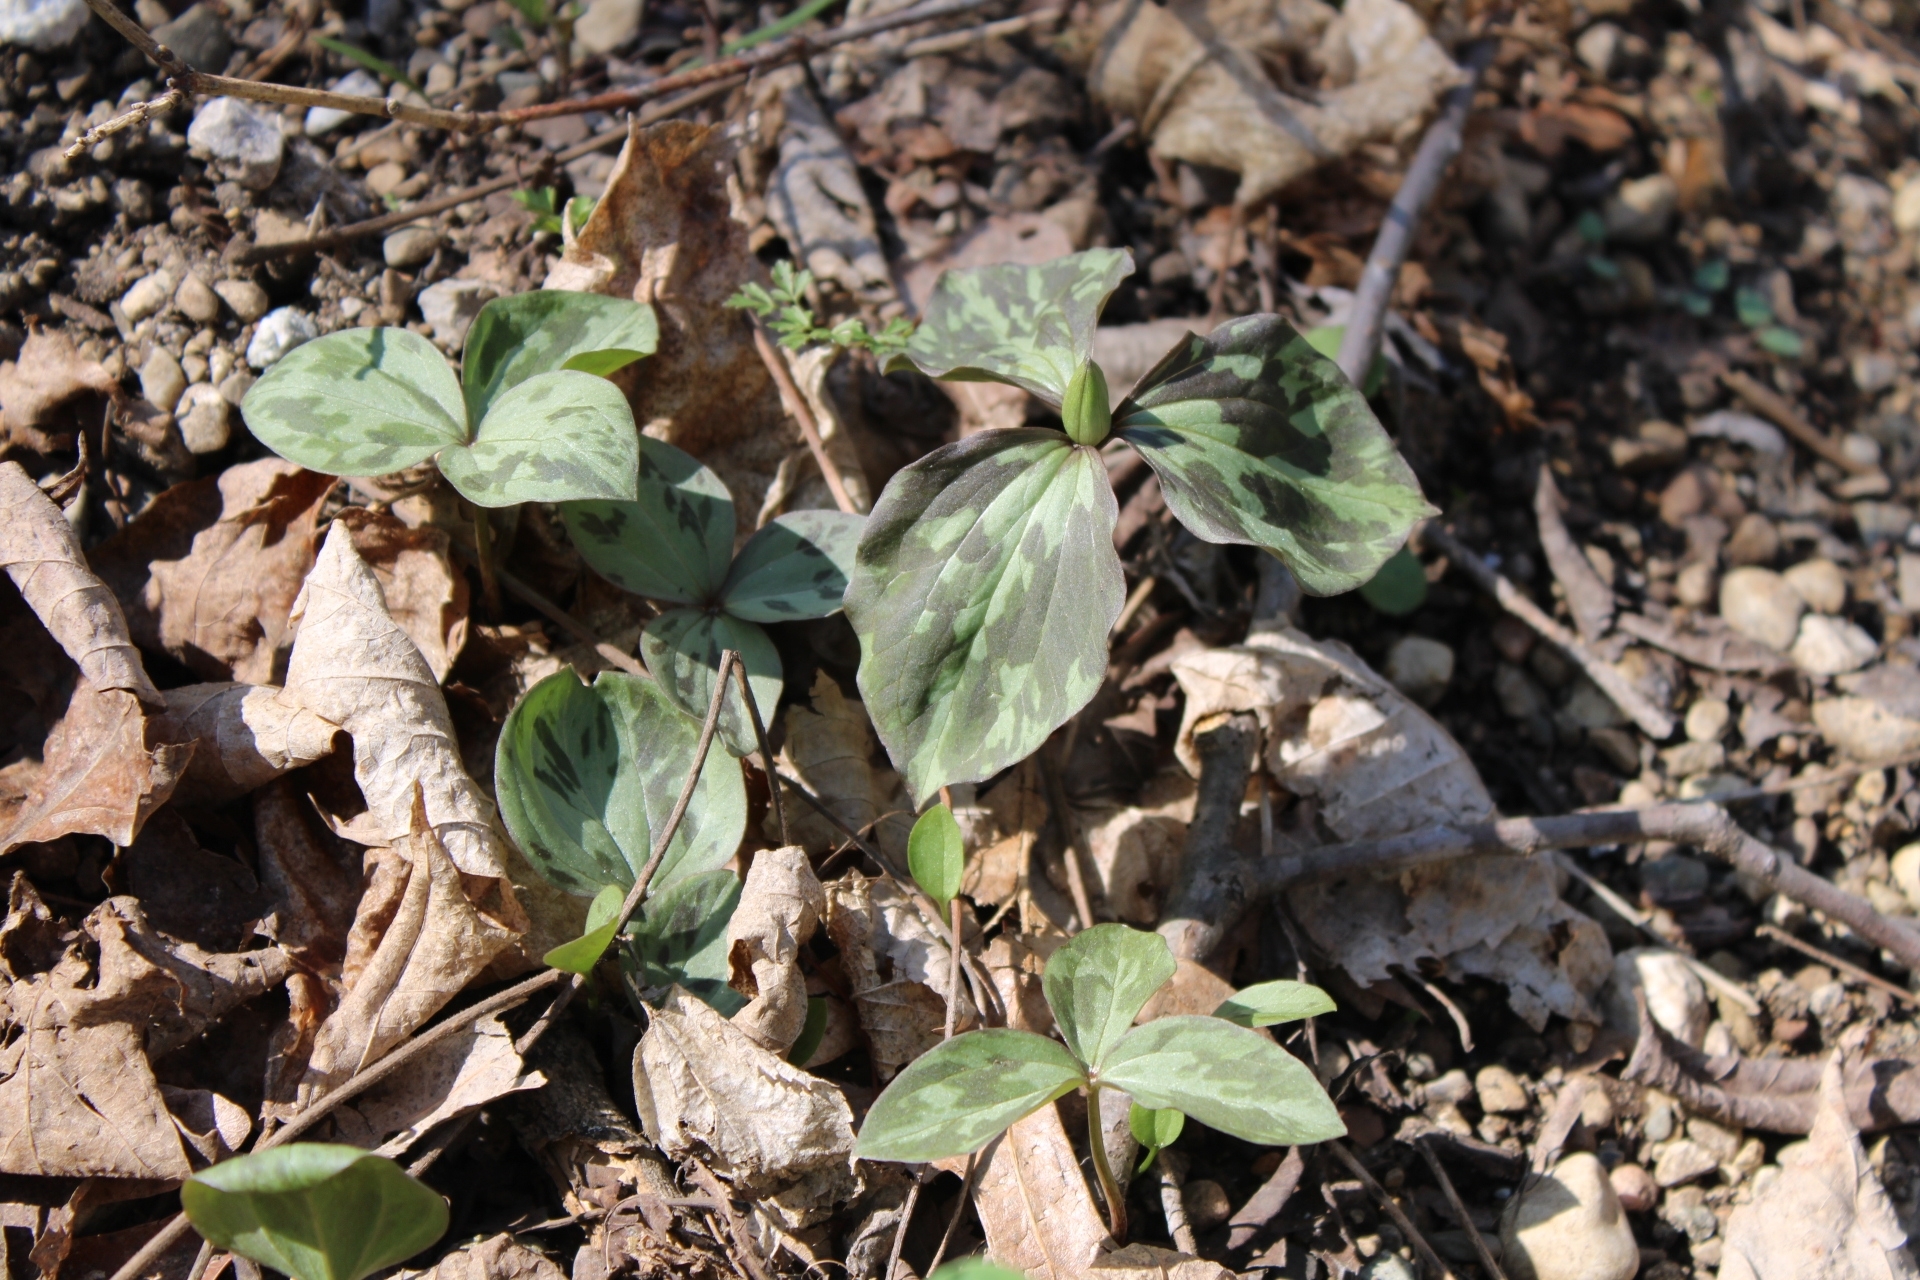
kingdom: Plantae
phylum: Tracheophyta
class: Liliopsida
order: Liliales
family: Melanthiaceae
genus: Trillium
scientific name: Trillium recurvatum
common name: Bloody butcher
